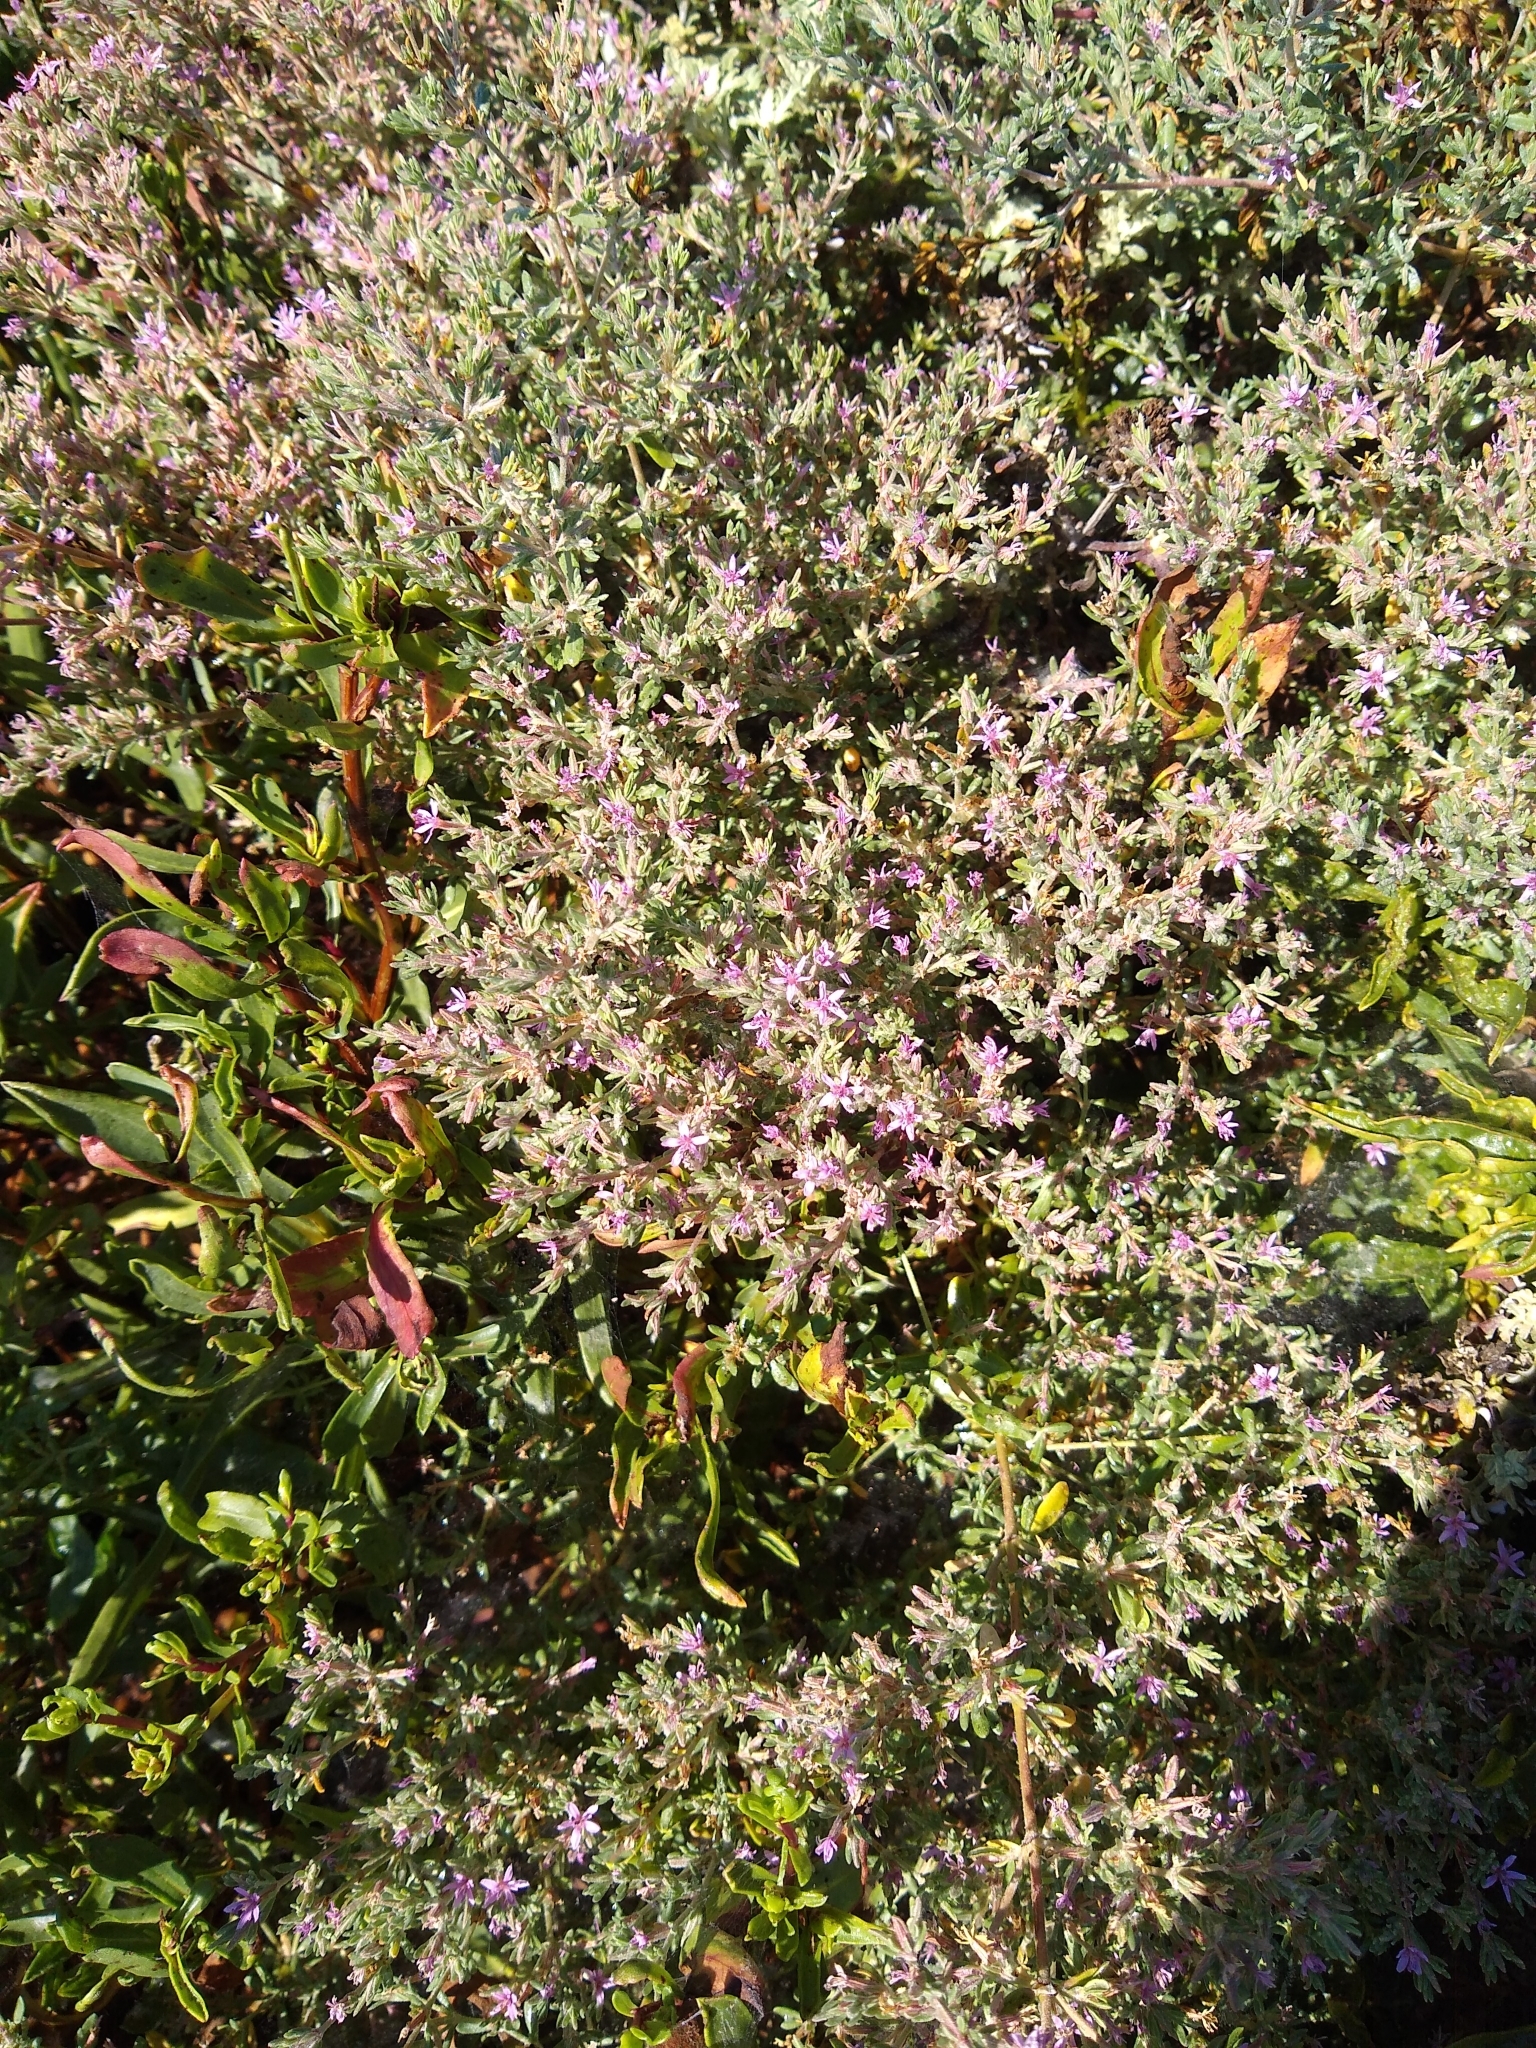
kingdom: Plantae
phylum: Tracheophyta
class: Magnoliopsida
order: Caryophyllales
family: Frankeniaceae
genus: Frankenia
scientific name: Frankenia salina
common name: Alkali seaheath
